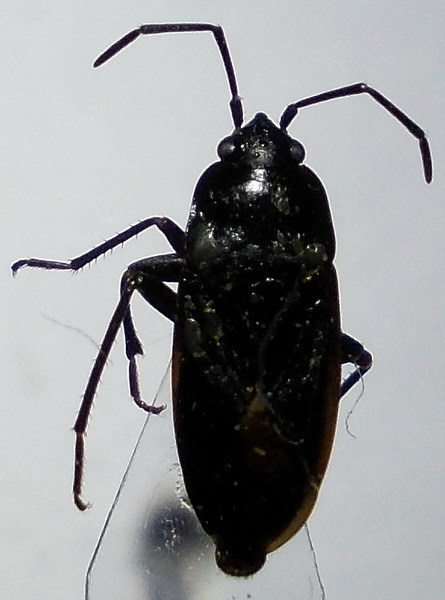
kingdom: Animalia
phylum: Arthropoda
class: Insecta
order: Hemiptera
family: Rhyparochromidae
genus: Aphanus
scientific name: Aphanus rolandri
